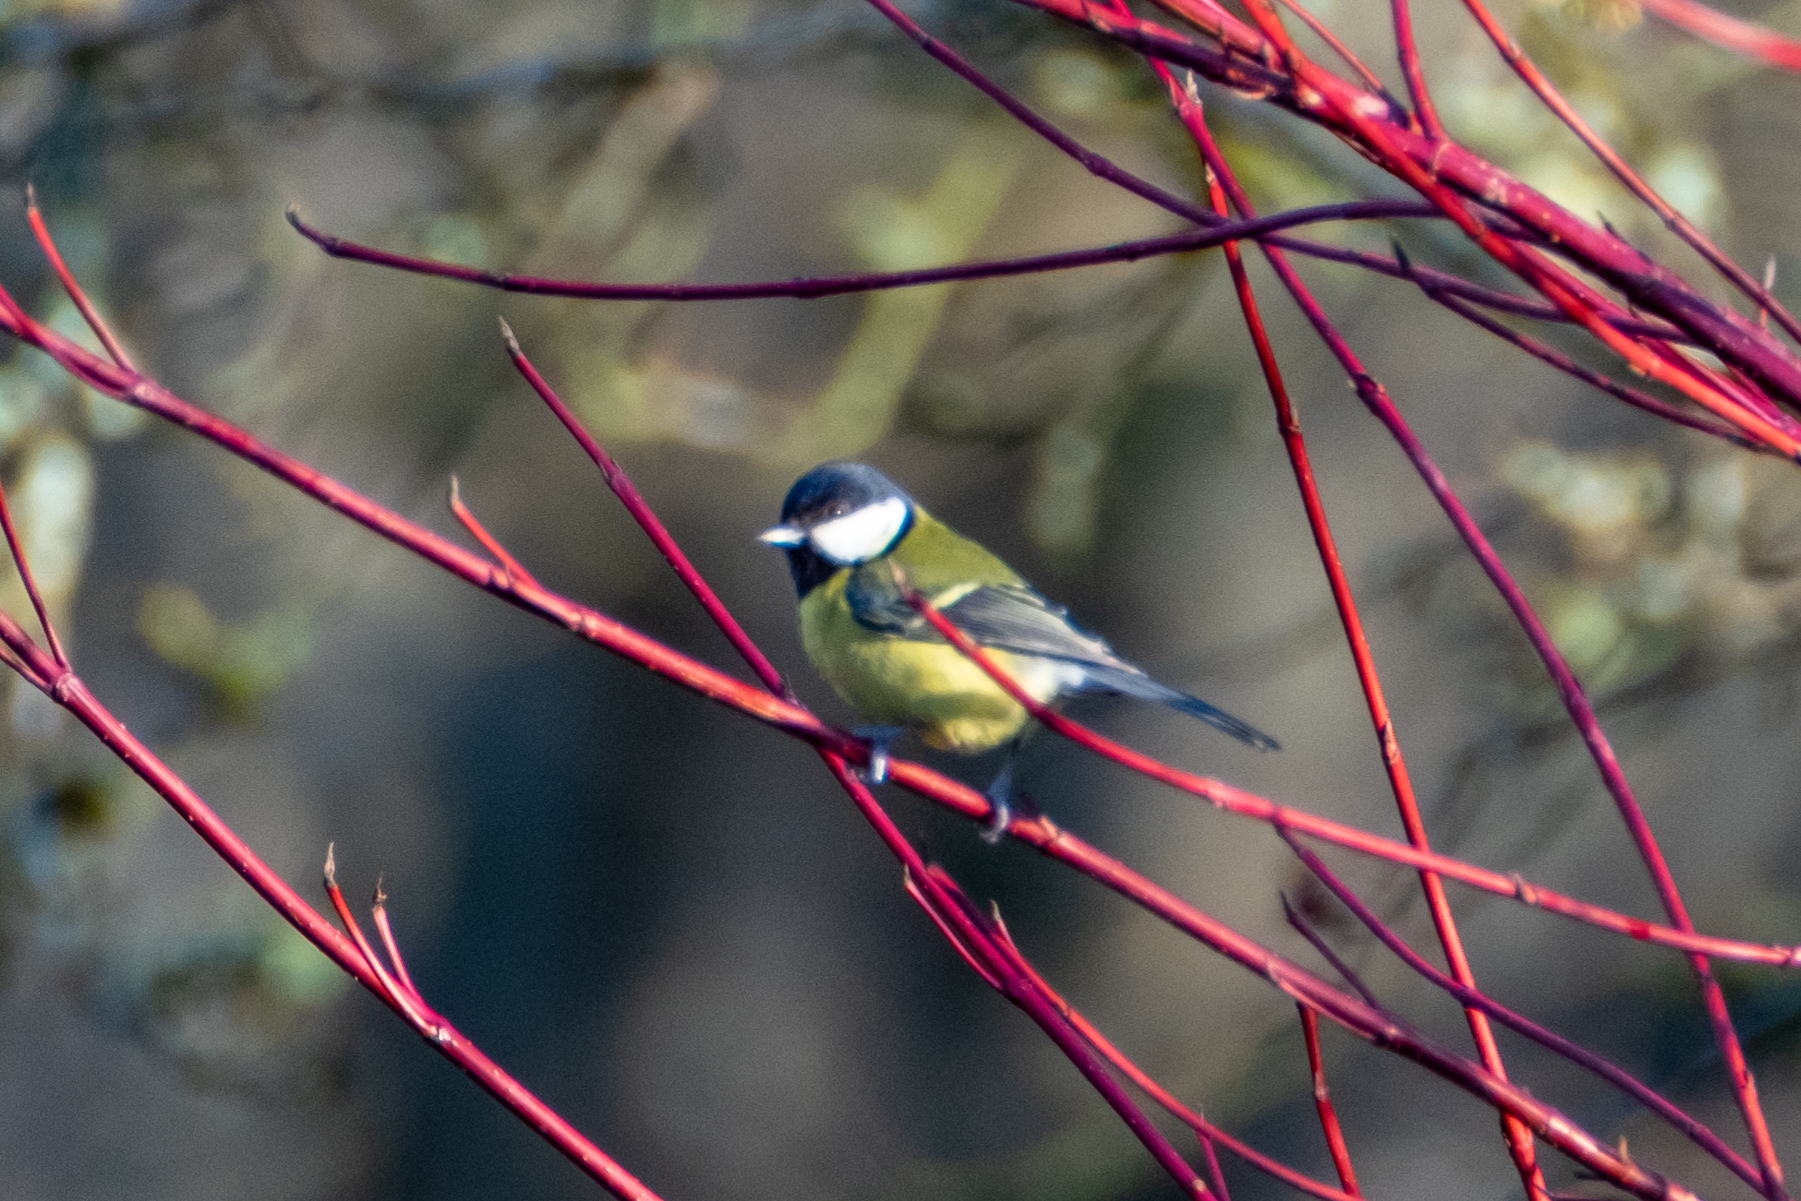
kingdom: Animalia
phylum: Chordata
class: Aves
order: Passeriformes
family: Paridae
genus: Parus
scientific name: Parus major
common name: Great tit
